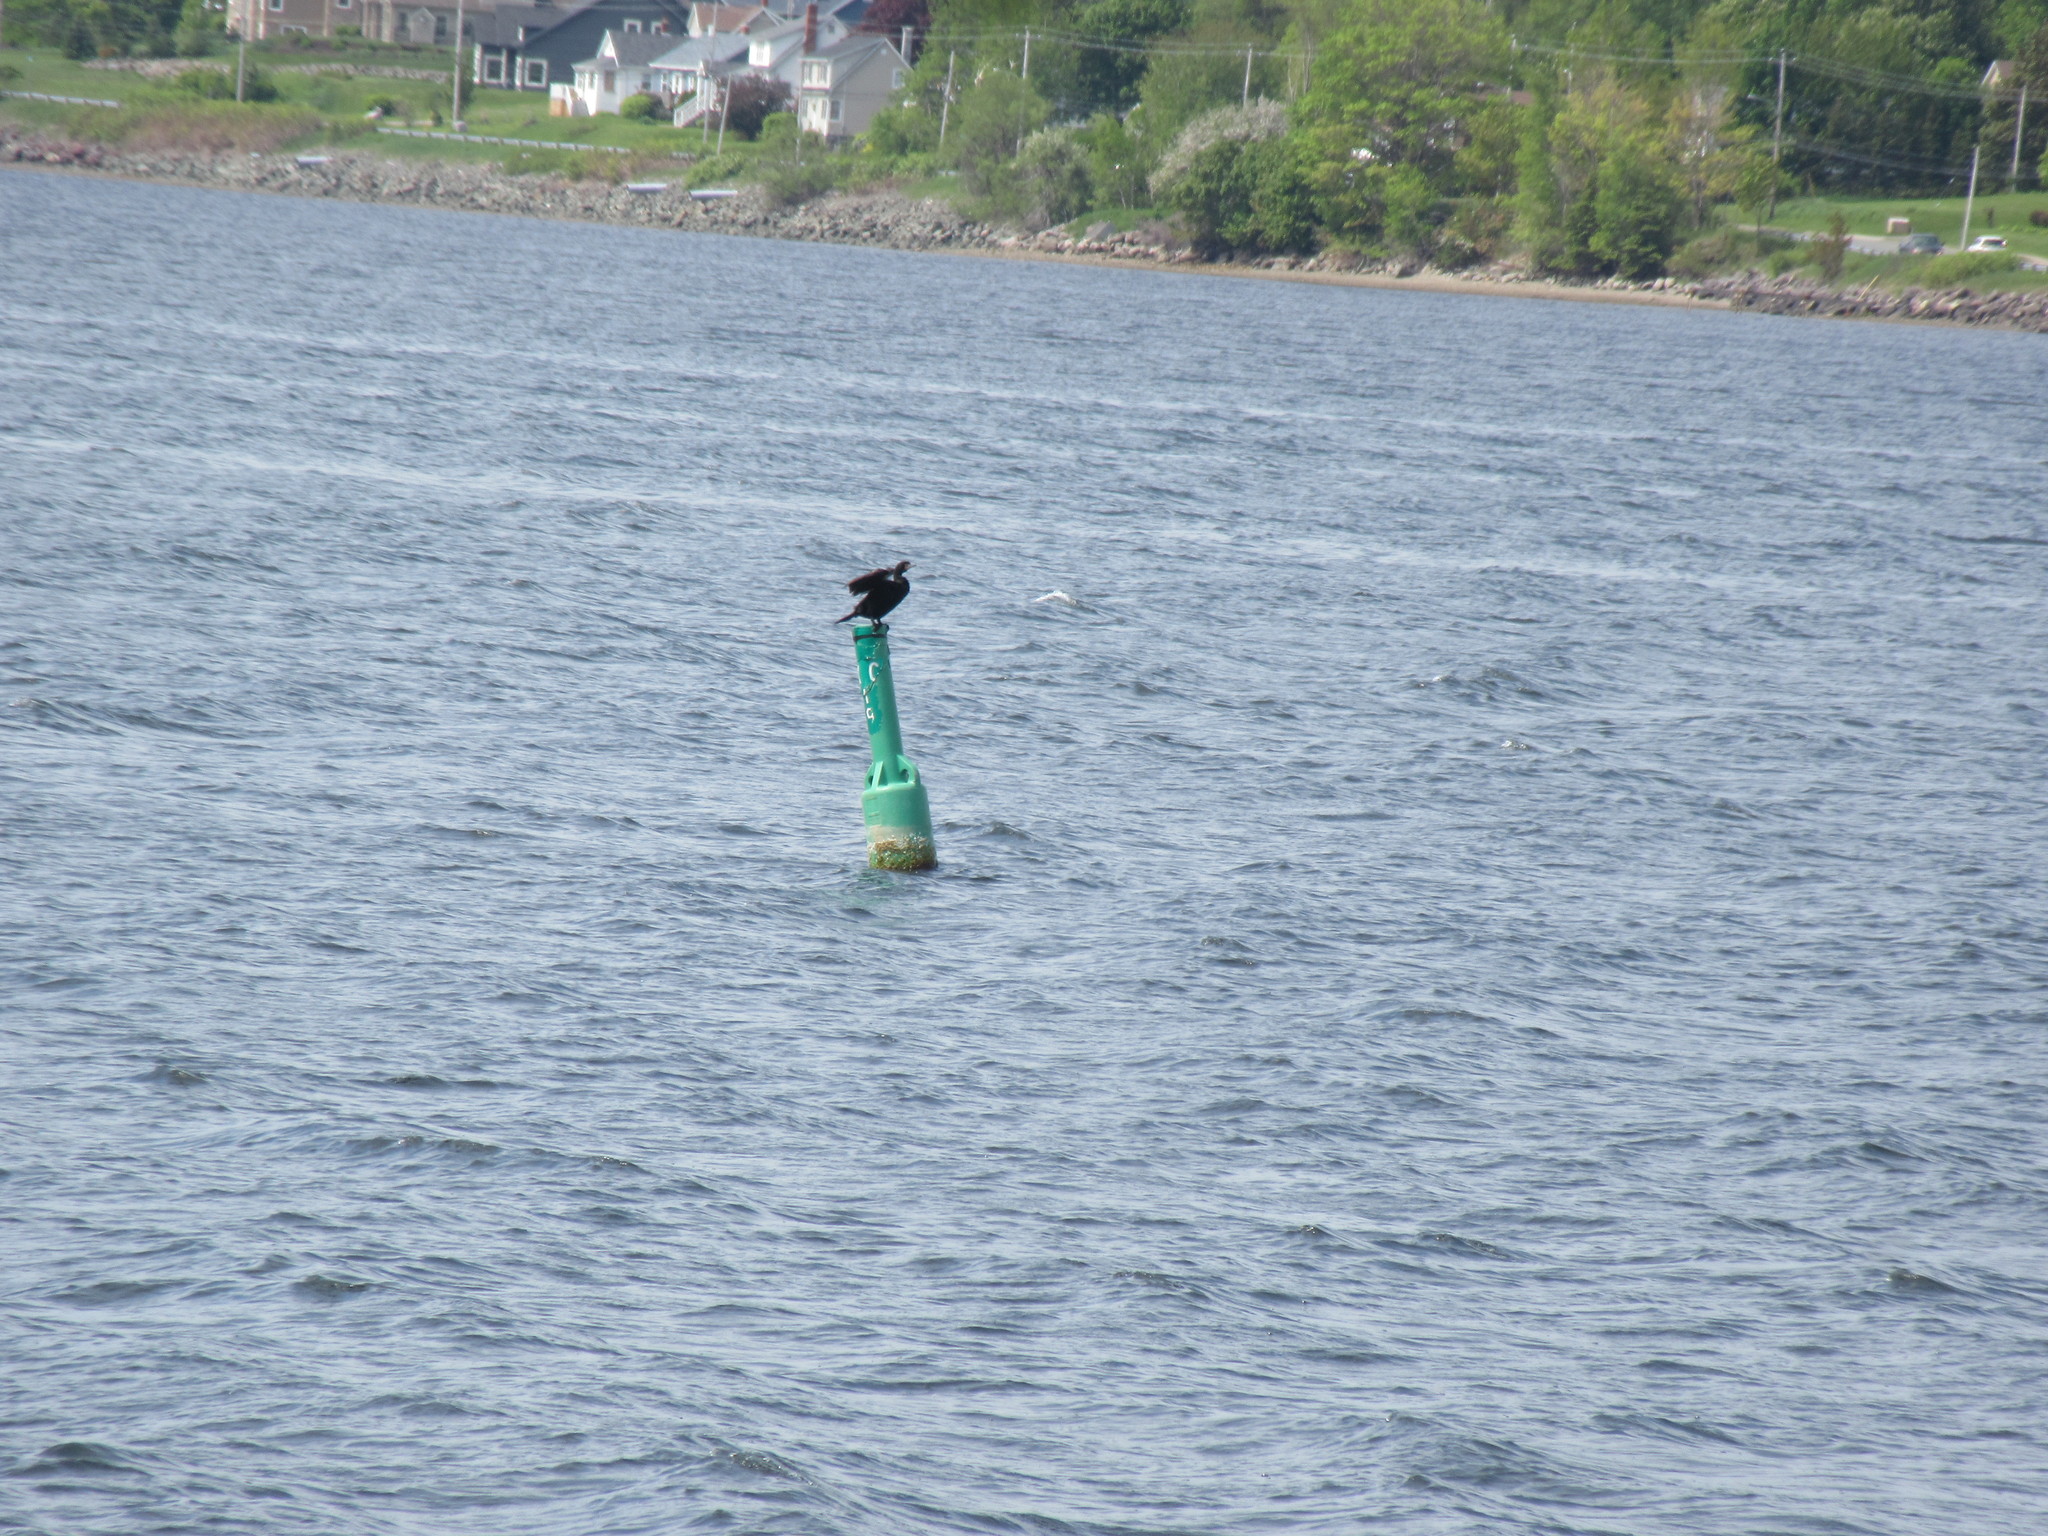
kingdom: Animalia
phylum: Chordata
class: Aves
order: Suliformes
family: Phalacrocoracidae
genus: Phalacrocorax
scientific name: Phalacrocorax auritus
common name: Double-crested cormorant
